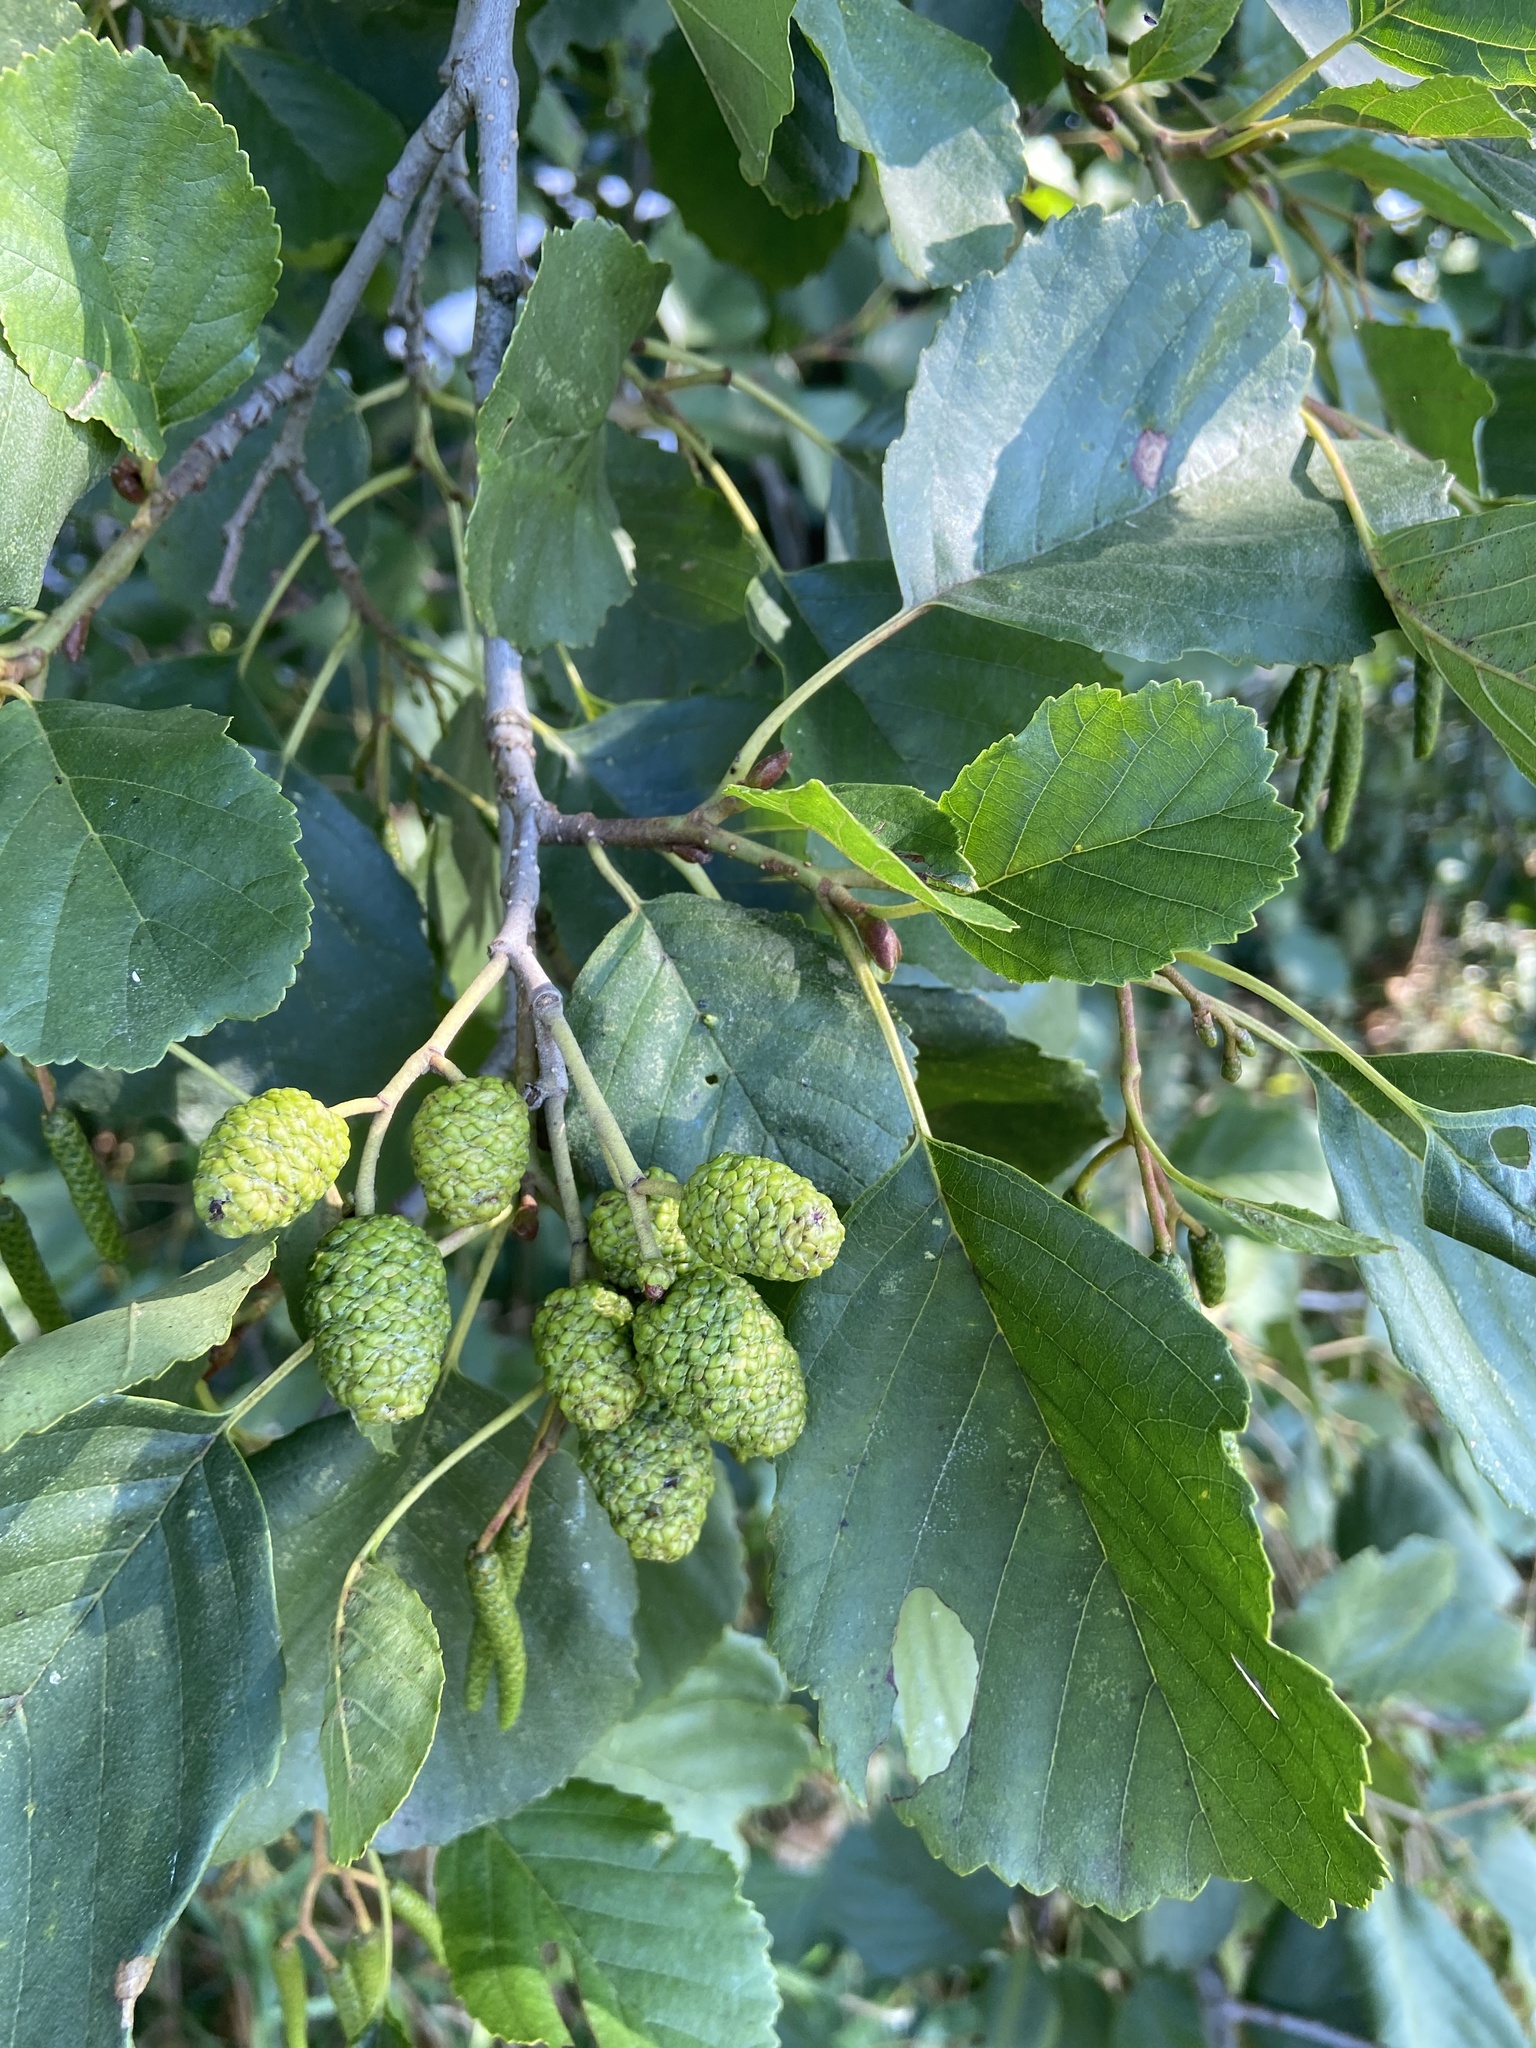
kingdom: Plantae
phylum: Tracheophyta
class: Magnoliopsida
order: Fagales
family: Betulaceae
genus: Alnus
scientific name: Alnus glutinosa
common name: Black alder
